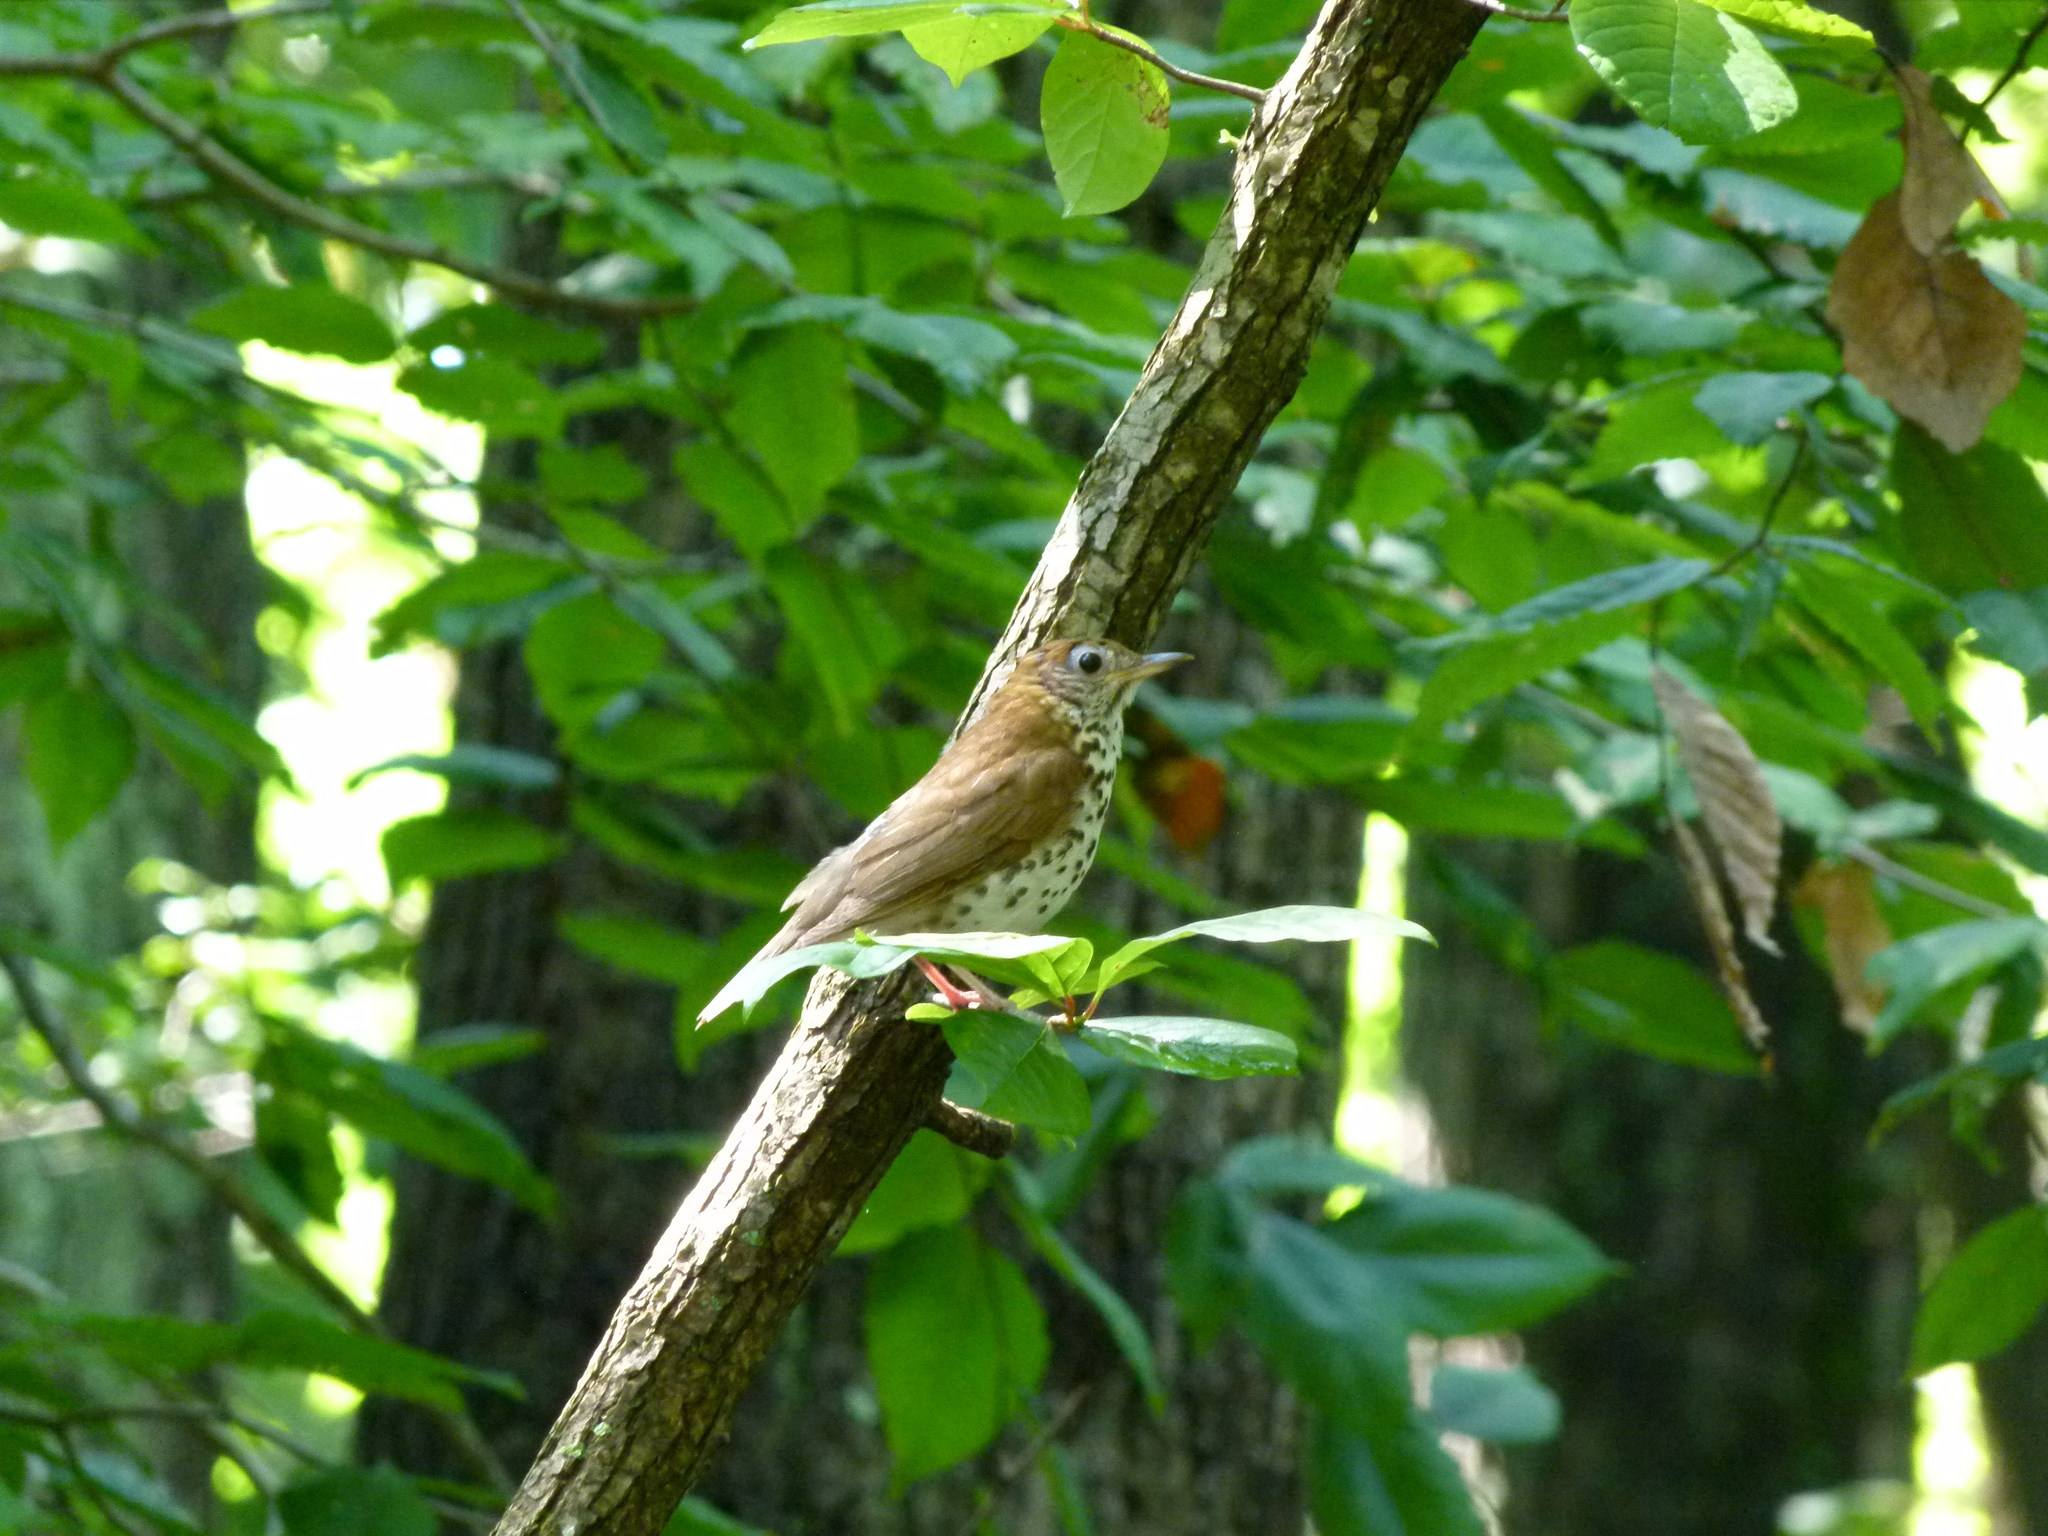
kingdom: Animalia
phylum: Chordata
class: Aves
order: Passeriformes
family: Turdidae
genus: Hylocichla
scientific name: Hylocichla mustelina
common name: Wood thrush
